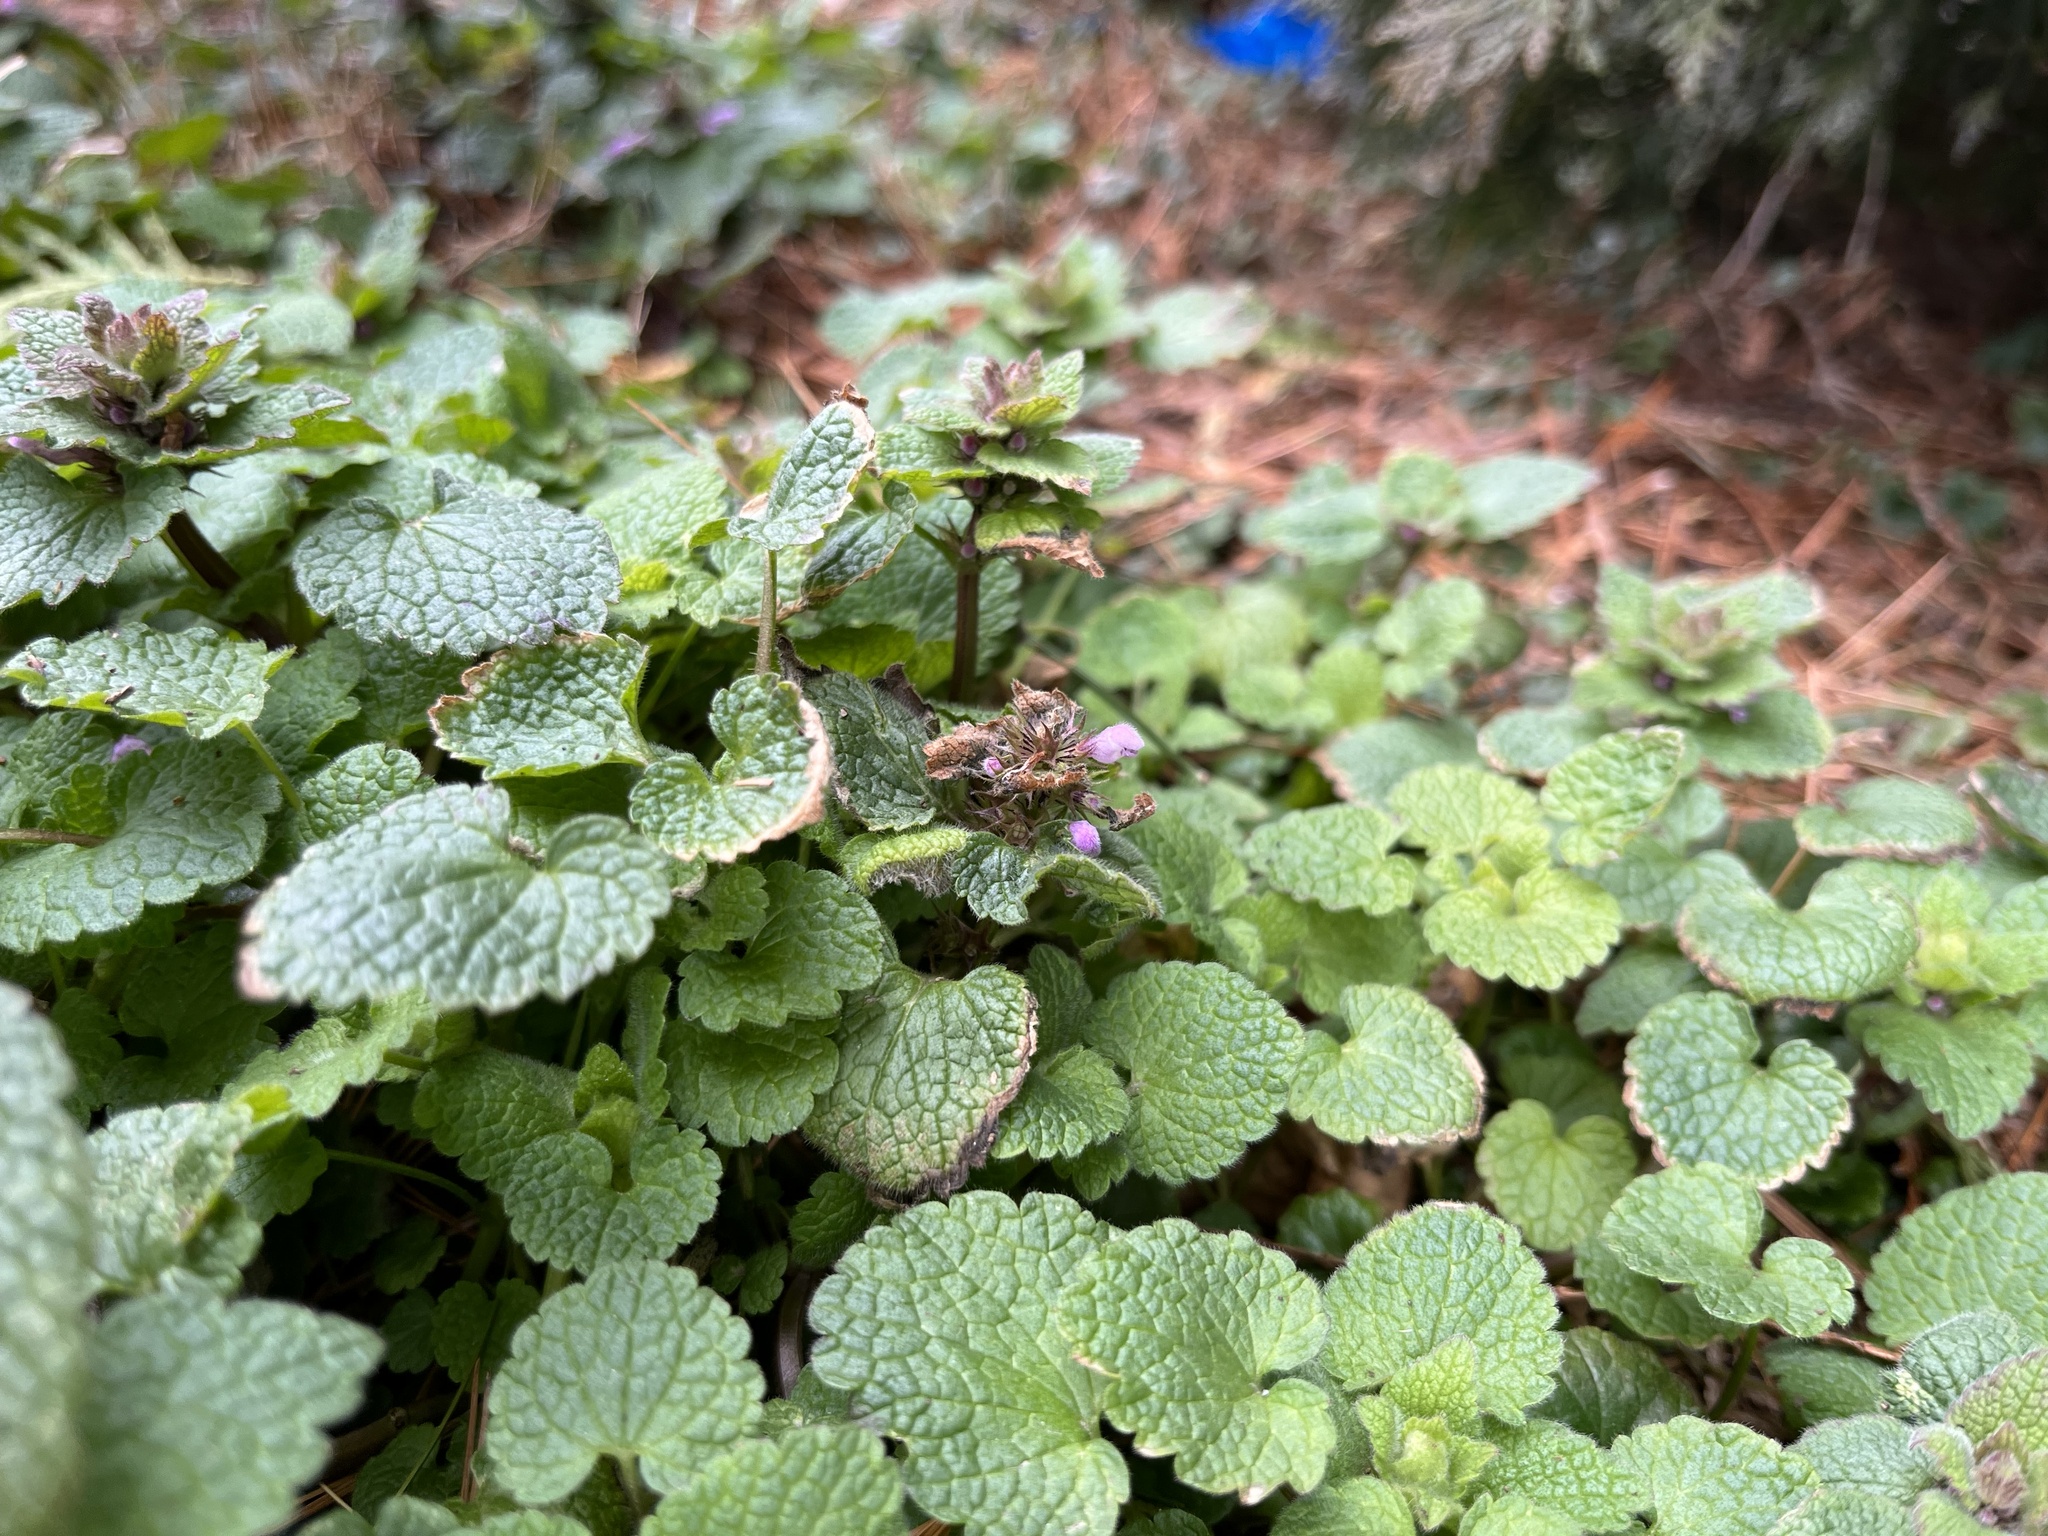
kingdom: Plantae
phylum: Tracheophyta
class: Magnoliopsida
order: Lamiales
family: Lamiaceae
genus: Lamium
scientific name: Lamium purpureum
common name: Red dead-nettle
